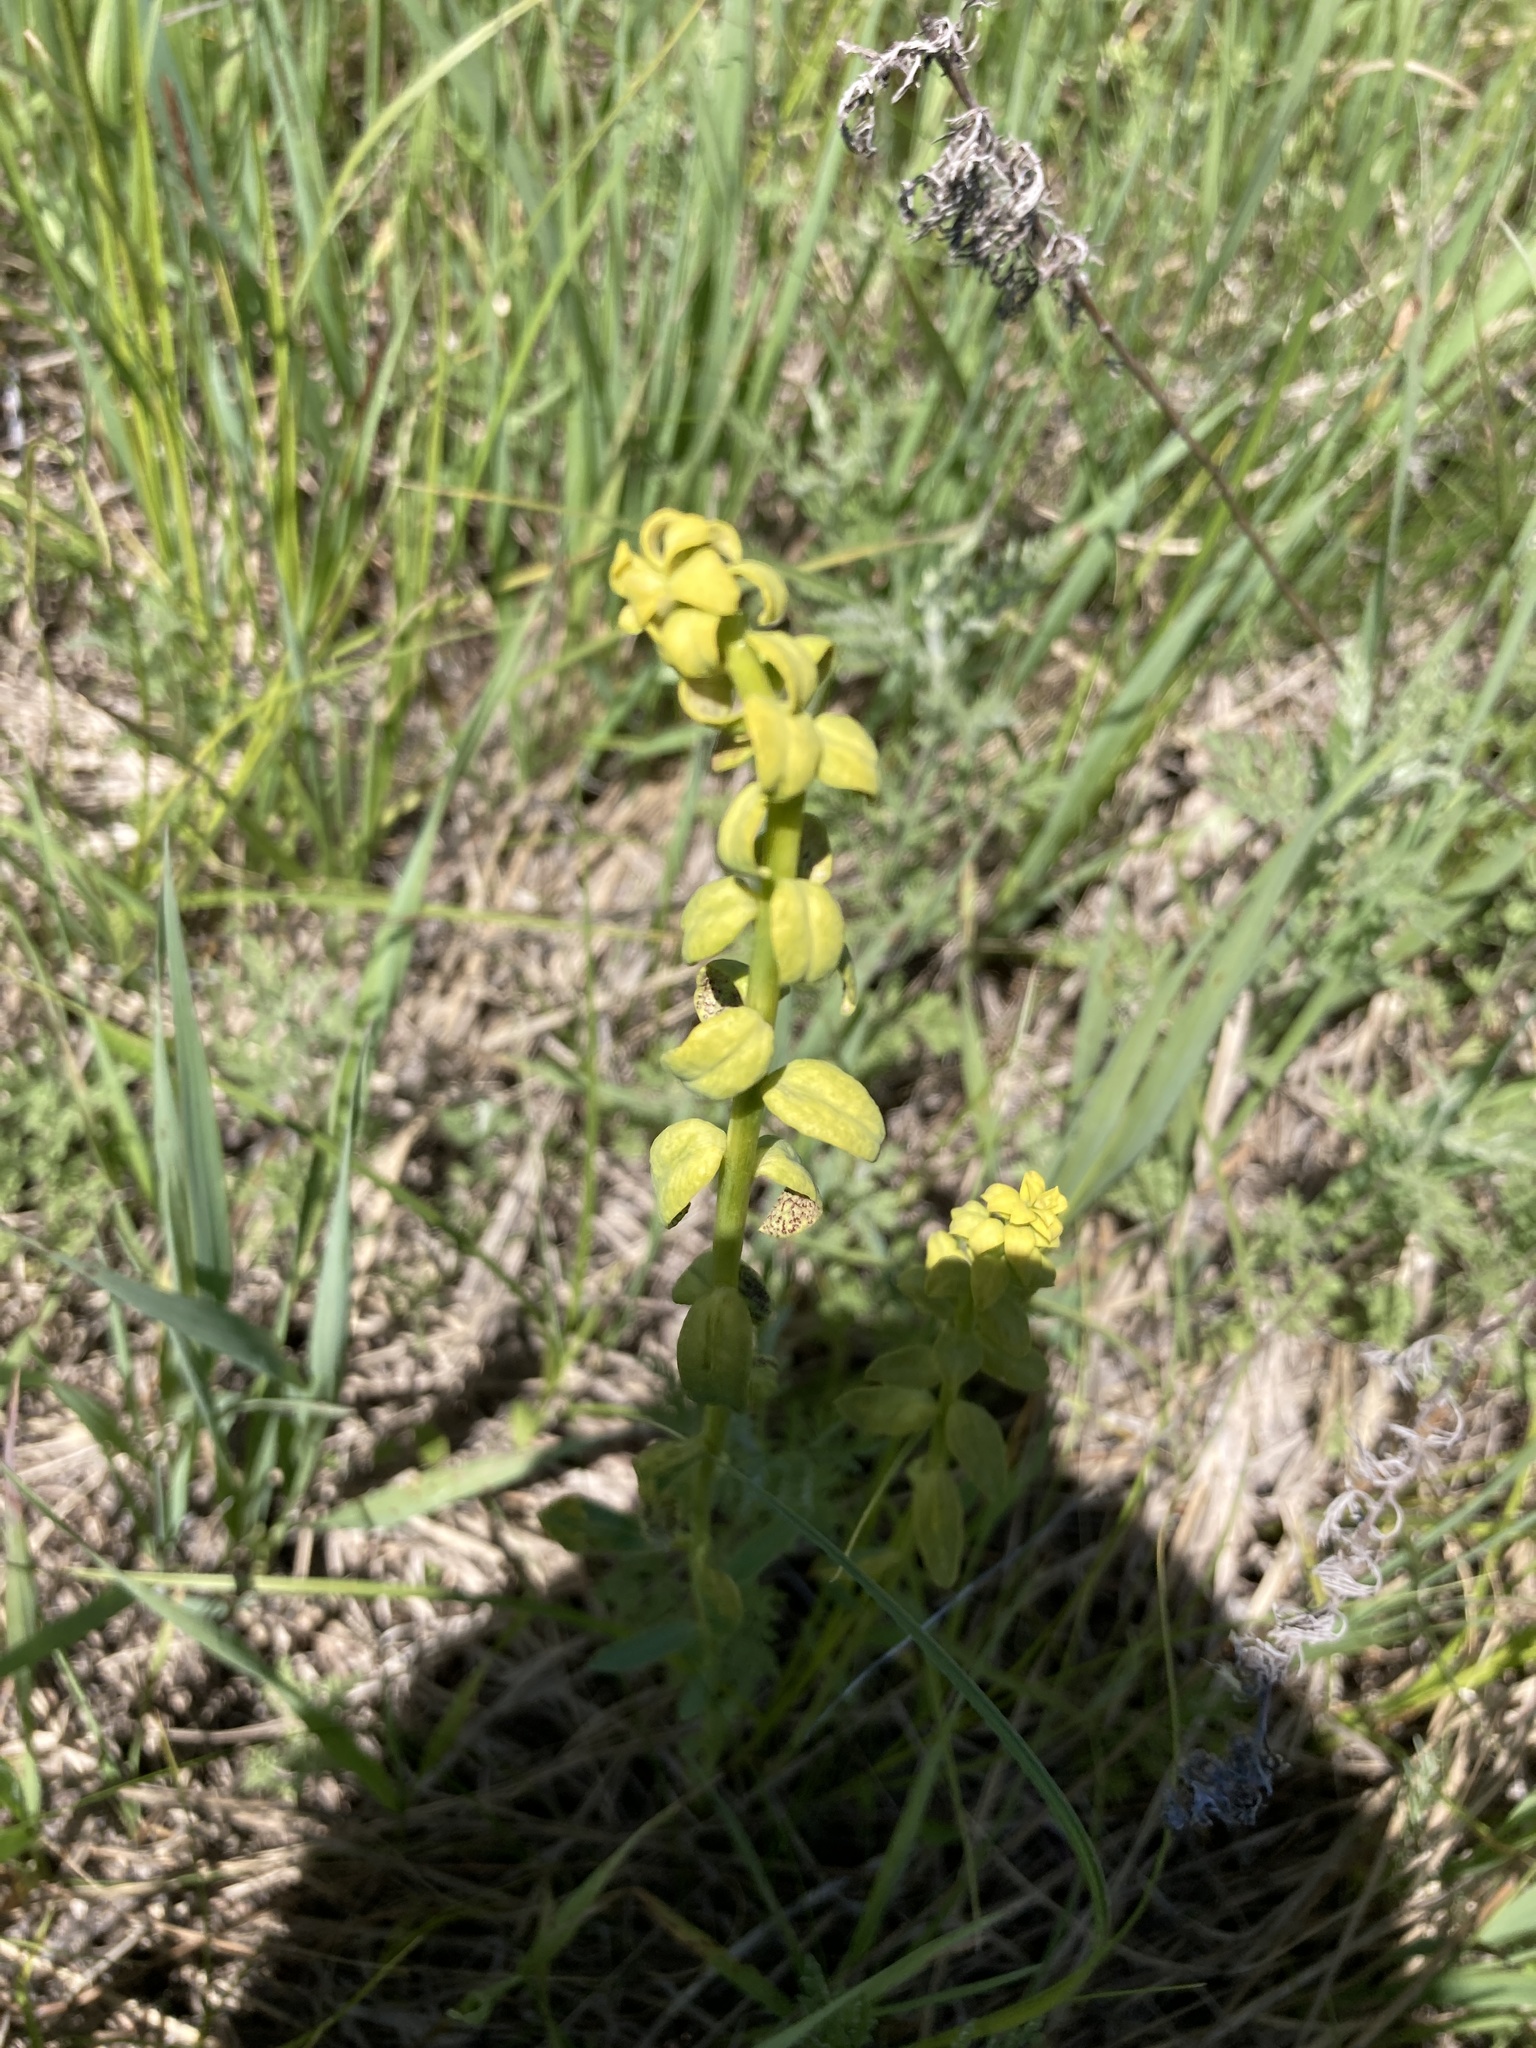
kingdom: Plantae
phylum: Tracheophyta
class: Magnoliopsida
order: Malpighiales
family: Euphorbiaceae
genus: Euphorbia
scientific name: Euphorbia virgata
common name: Leafy spurge
